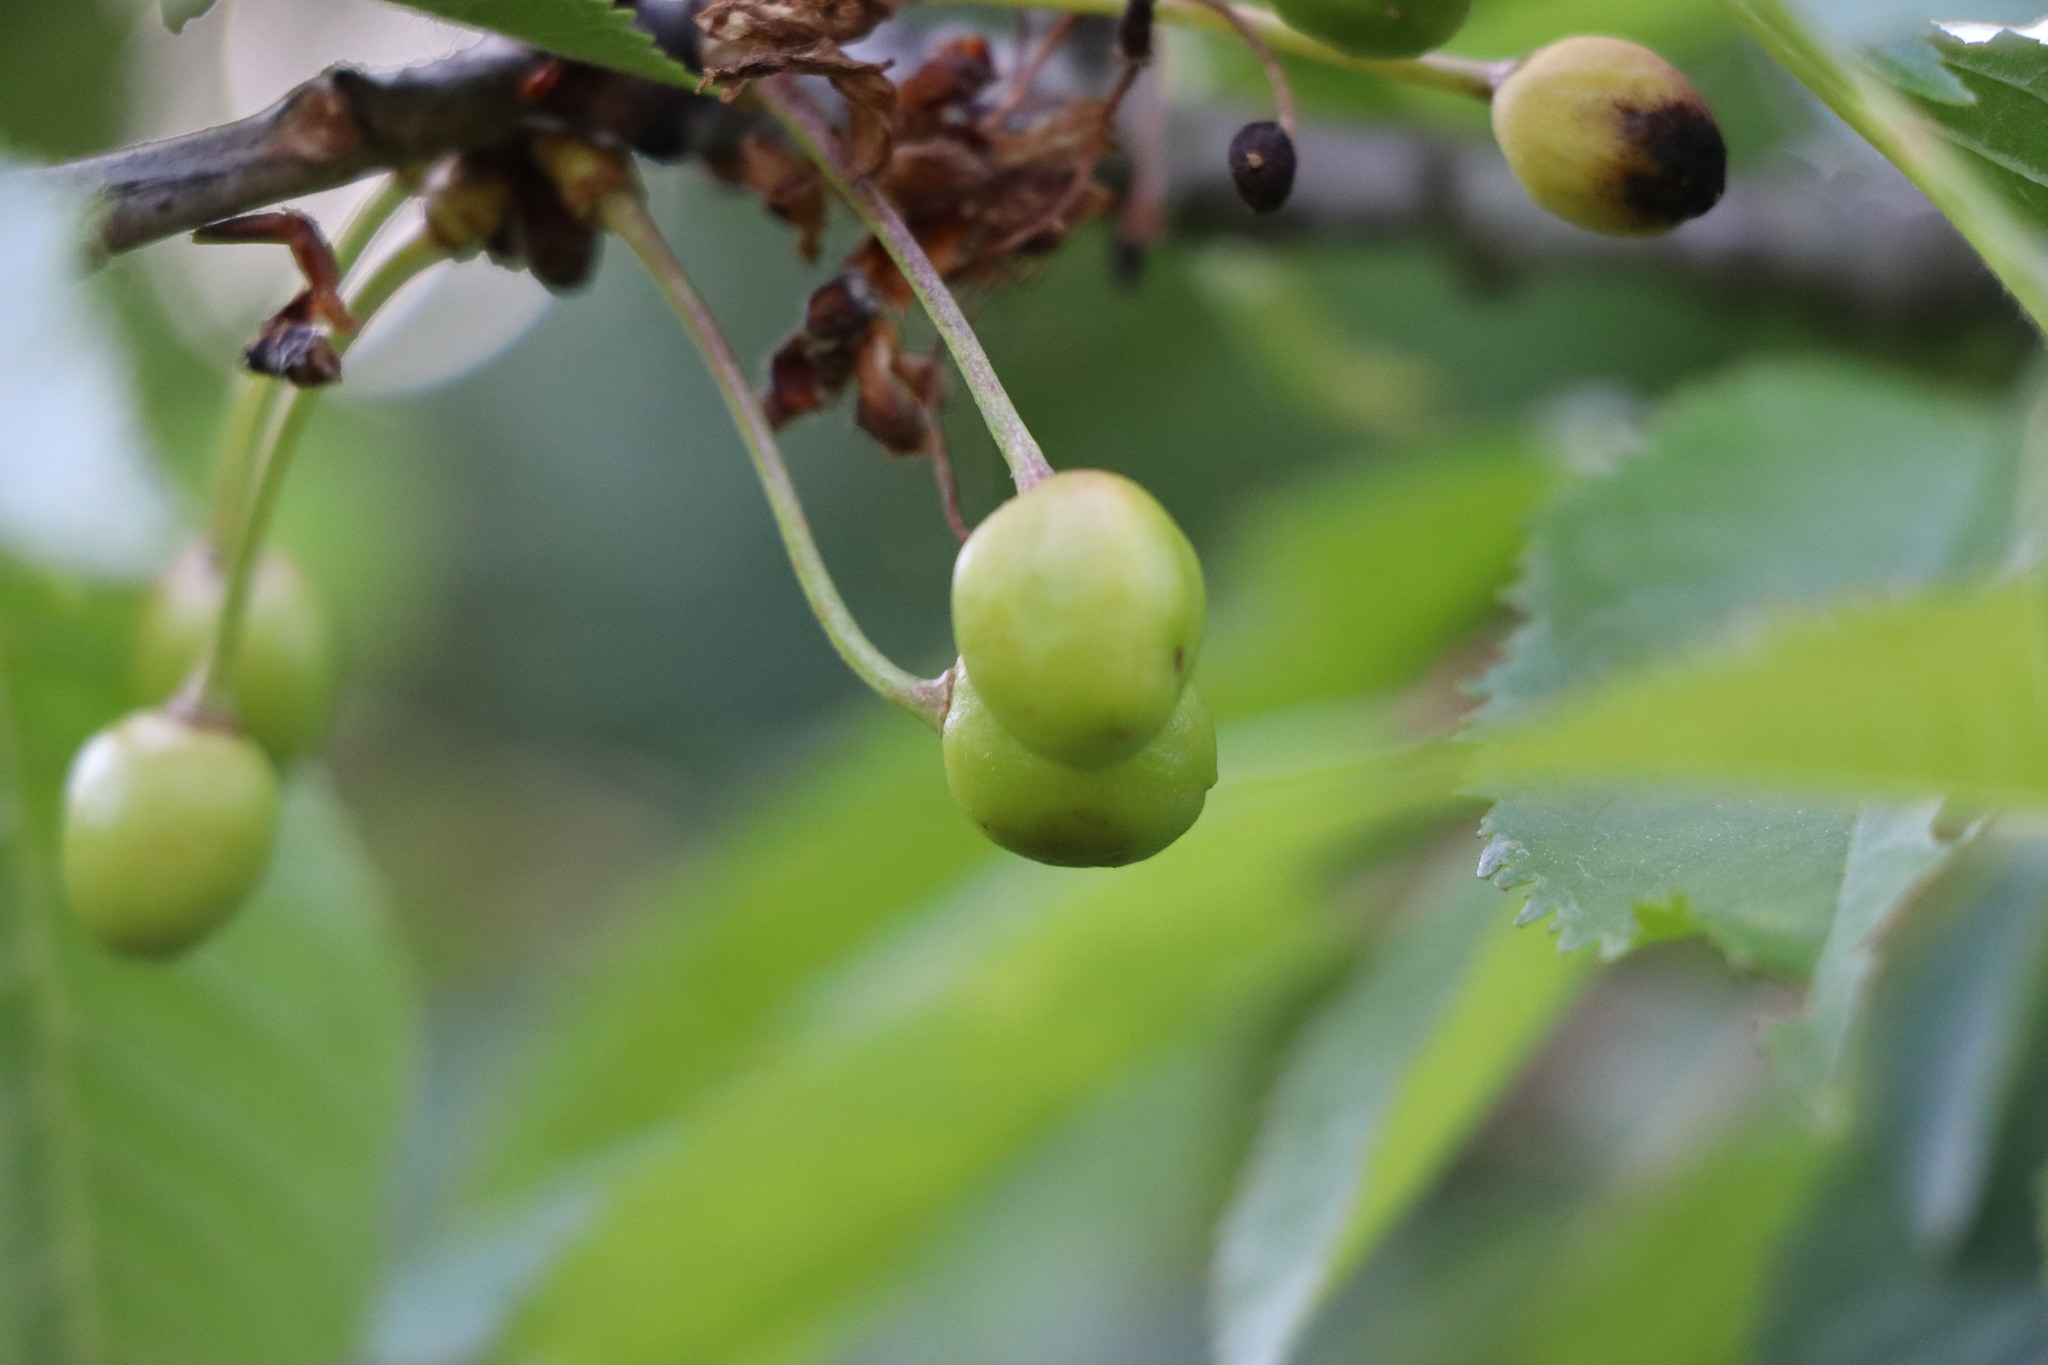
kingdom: Plantae
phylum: Tracheophyta
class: Magnoliopsida
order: Rosales
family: Rosaceae
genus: Prunus
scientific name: Prunus avium
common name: Sweet cherry
